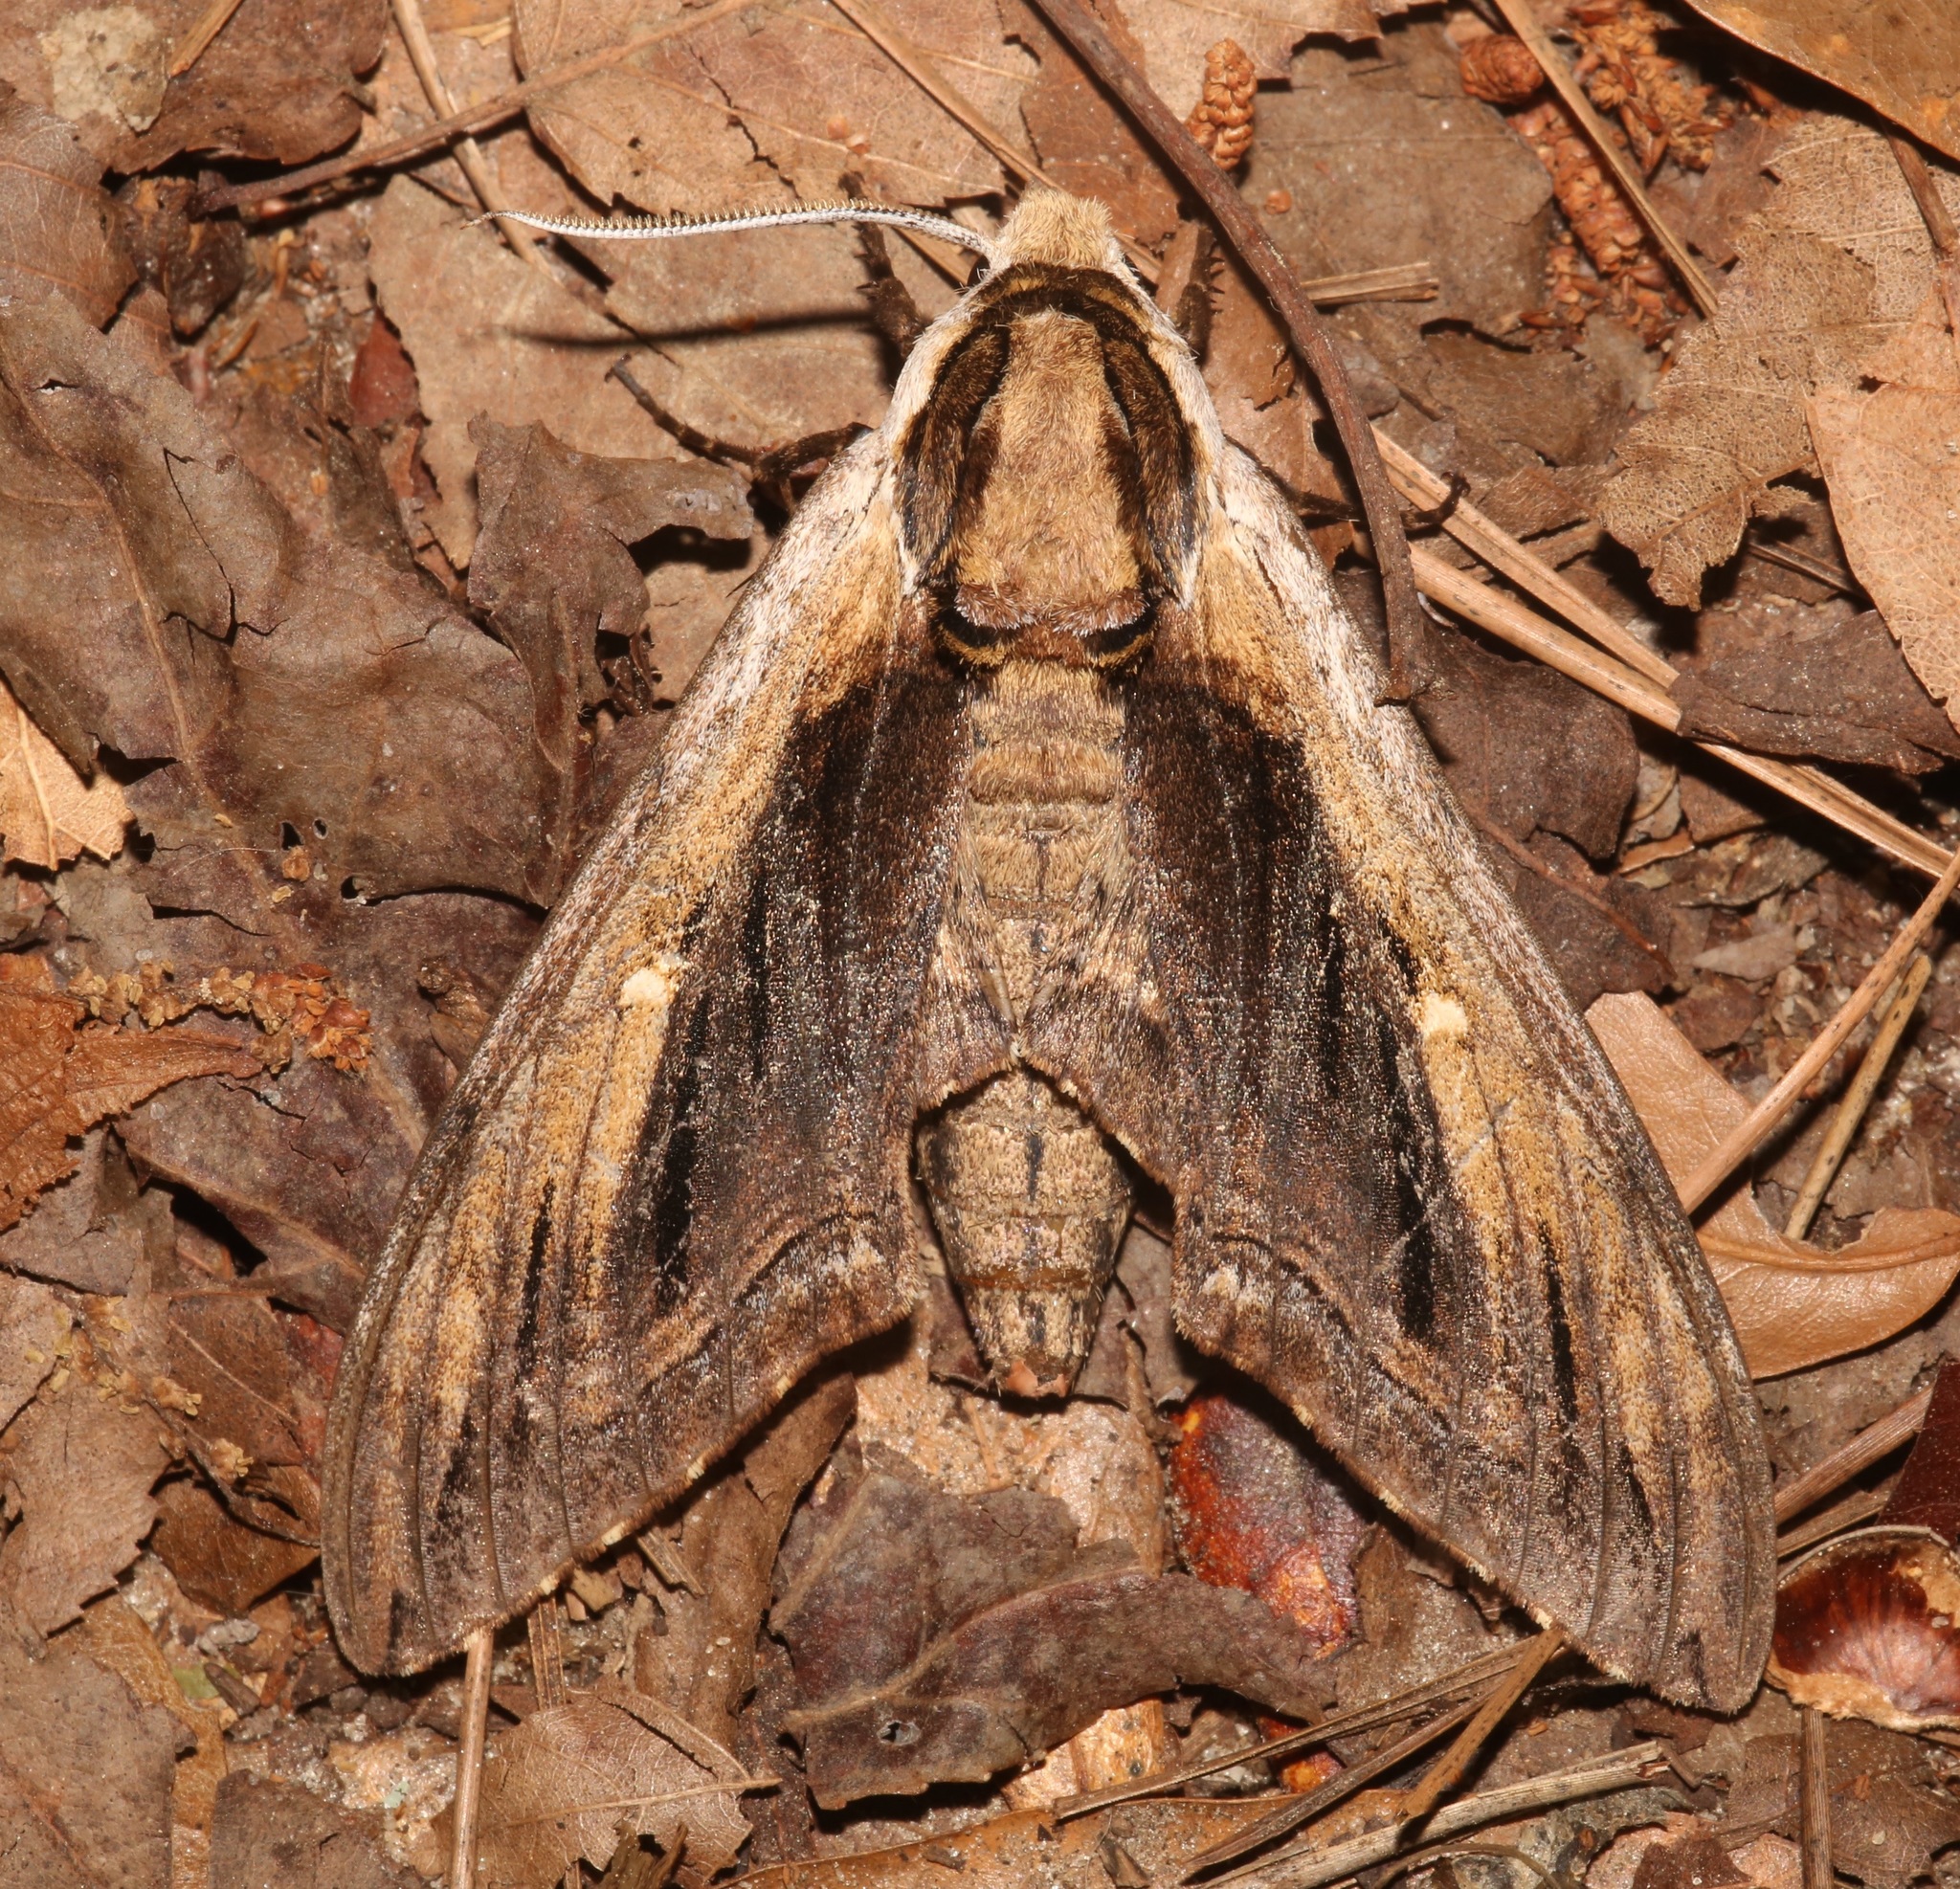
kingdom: Animalia
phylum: Arthropoda
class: Insecta
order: Lepidoptera
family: Sphingidae
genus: Ceratomia
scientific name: Ceratomia amyntor
